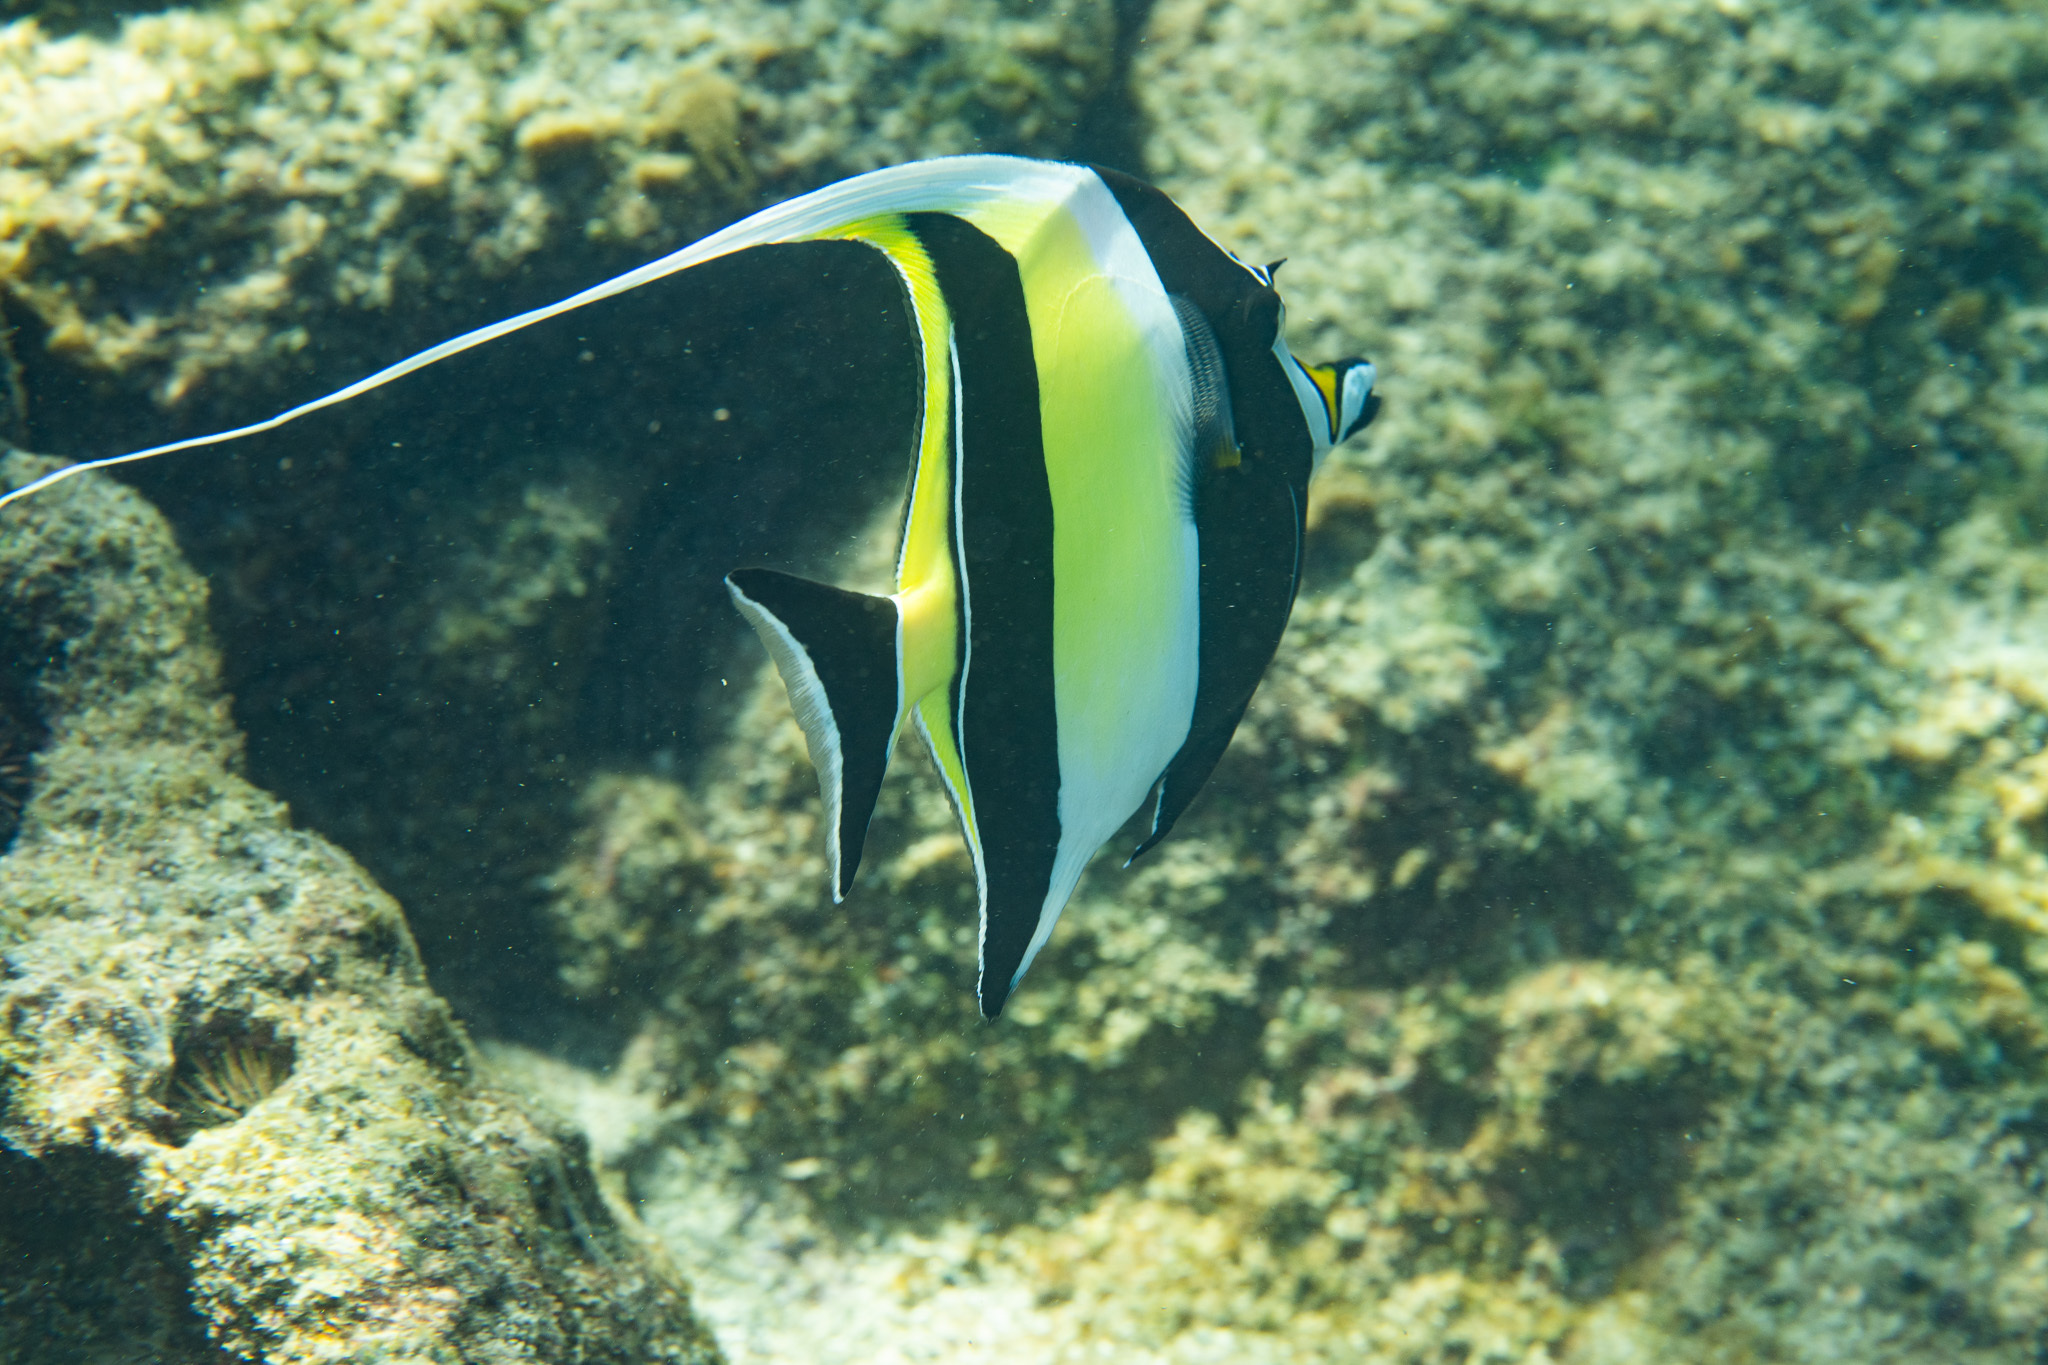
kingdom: Animalia
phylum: Chordata
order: Perciformes
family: Zanclidae
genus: Zanclus
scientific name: Zanclus cornutus
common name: Moorish idol
